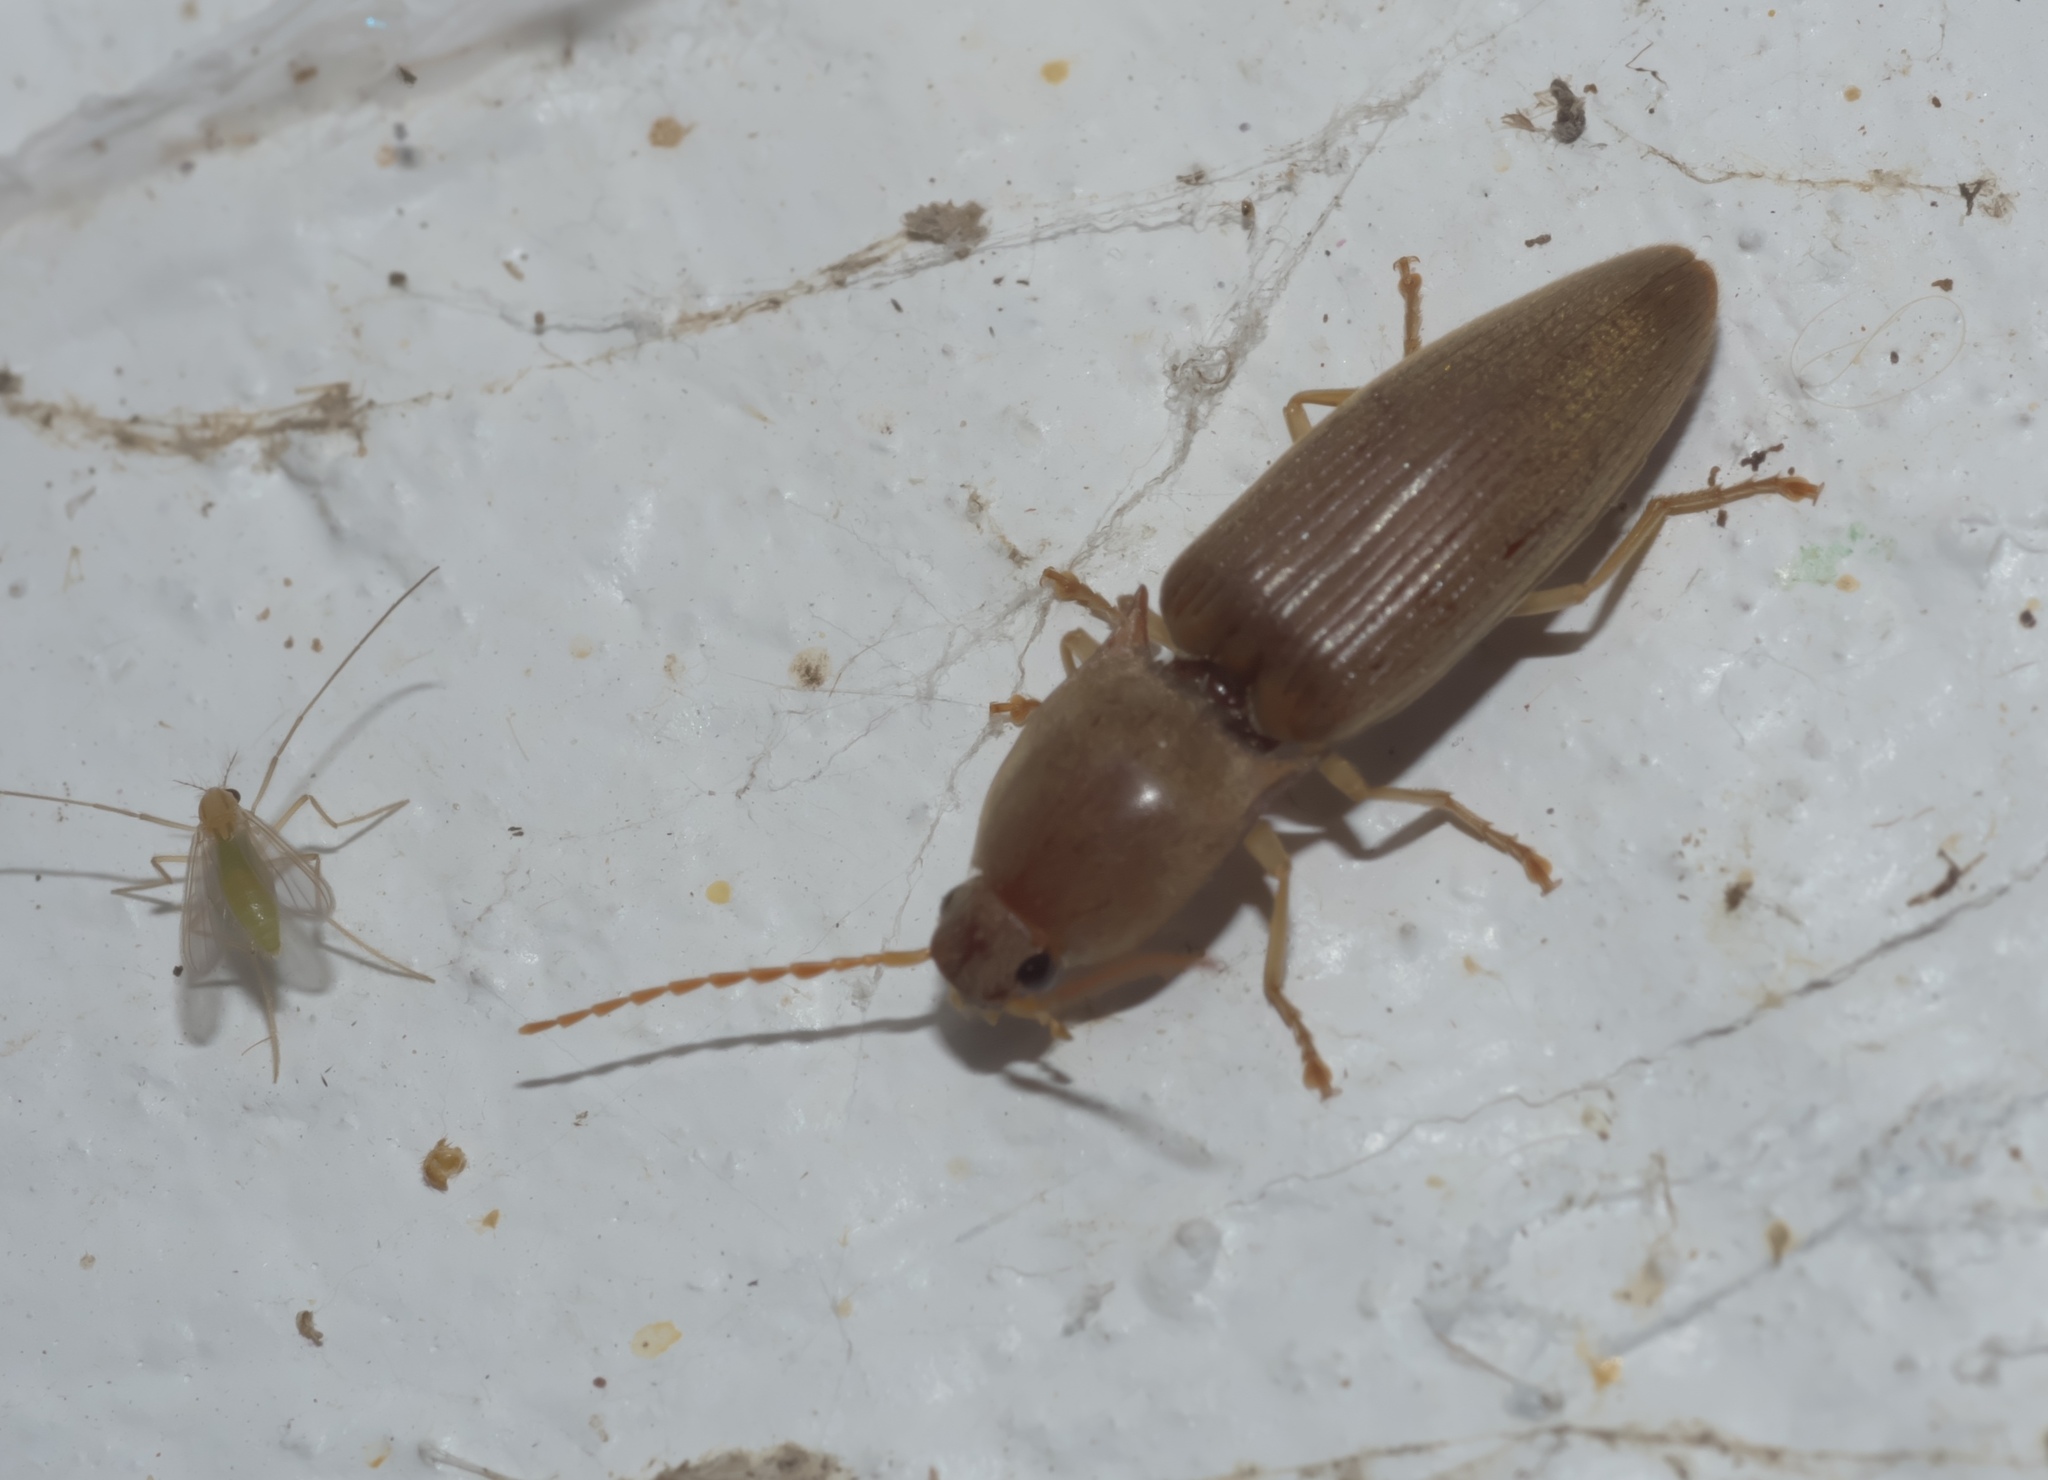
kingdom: Animalia
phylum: Arthropoda
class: Insecta
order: Coleoptera
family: Elateridae
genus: Monocrepidius
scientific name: Monocrepidius lividus
